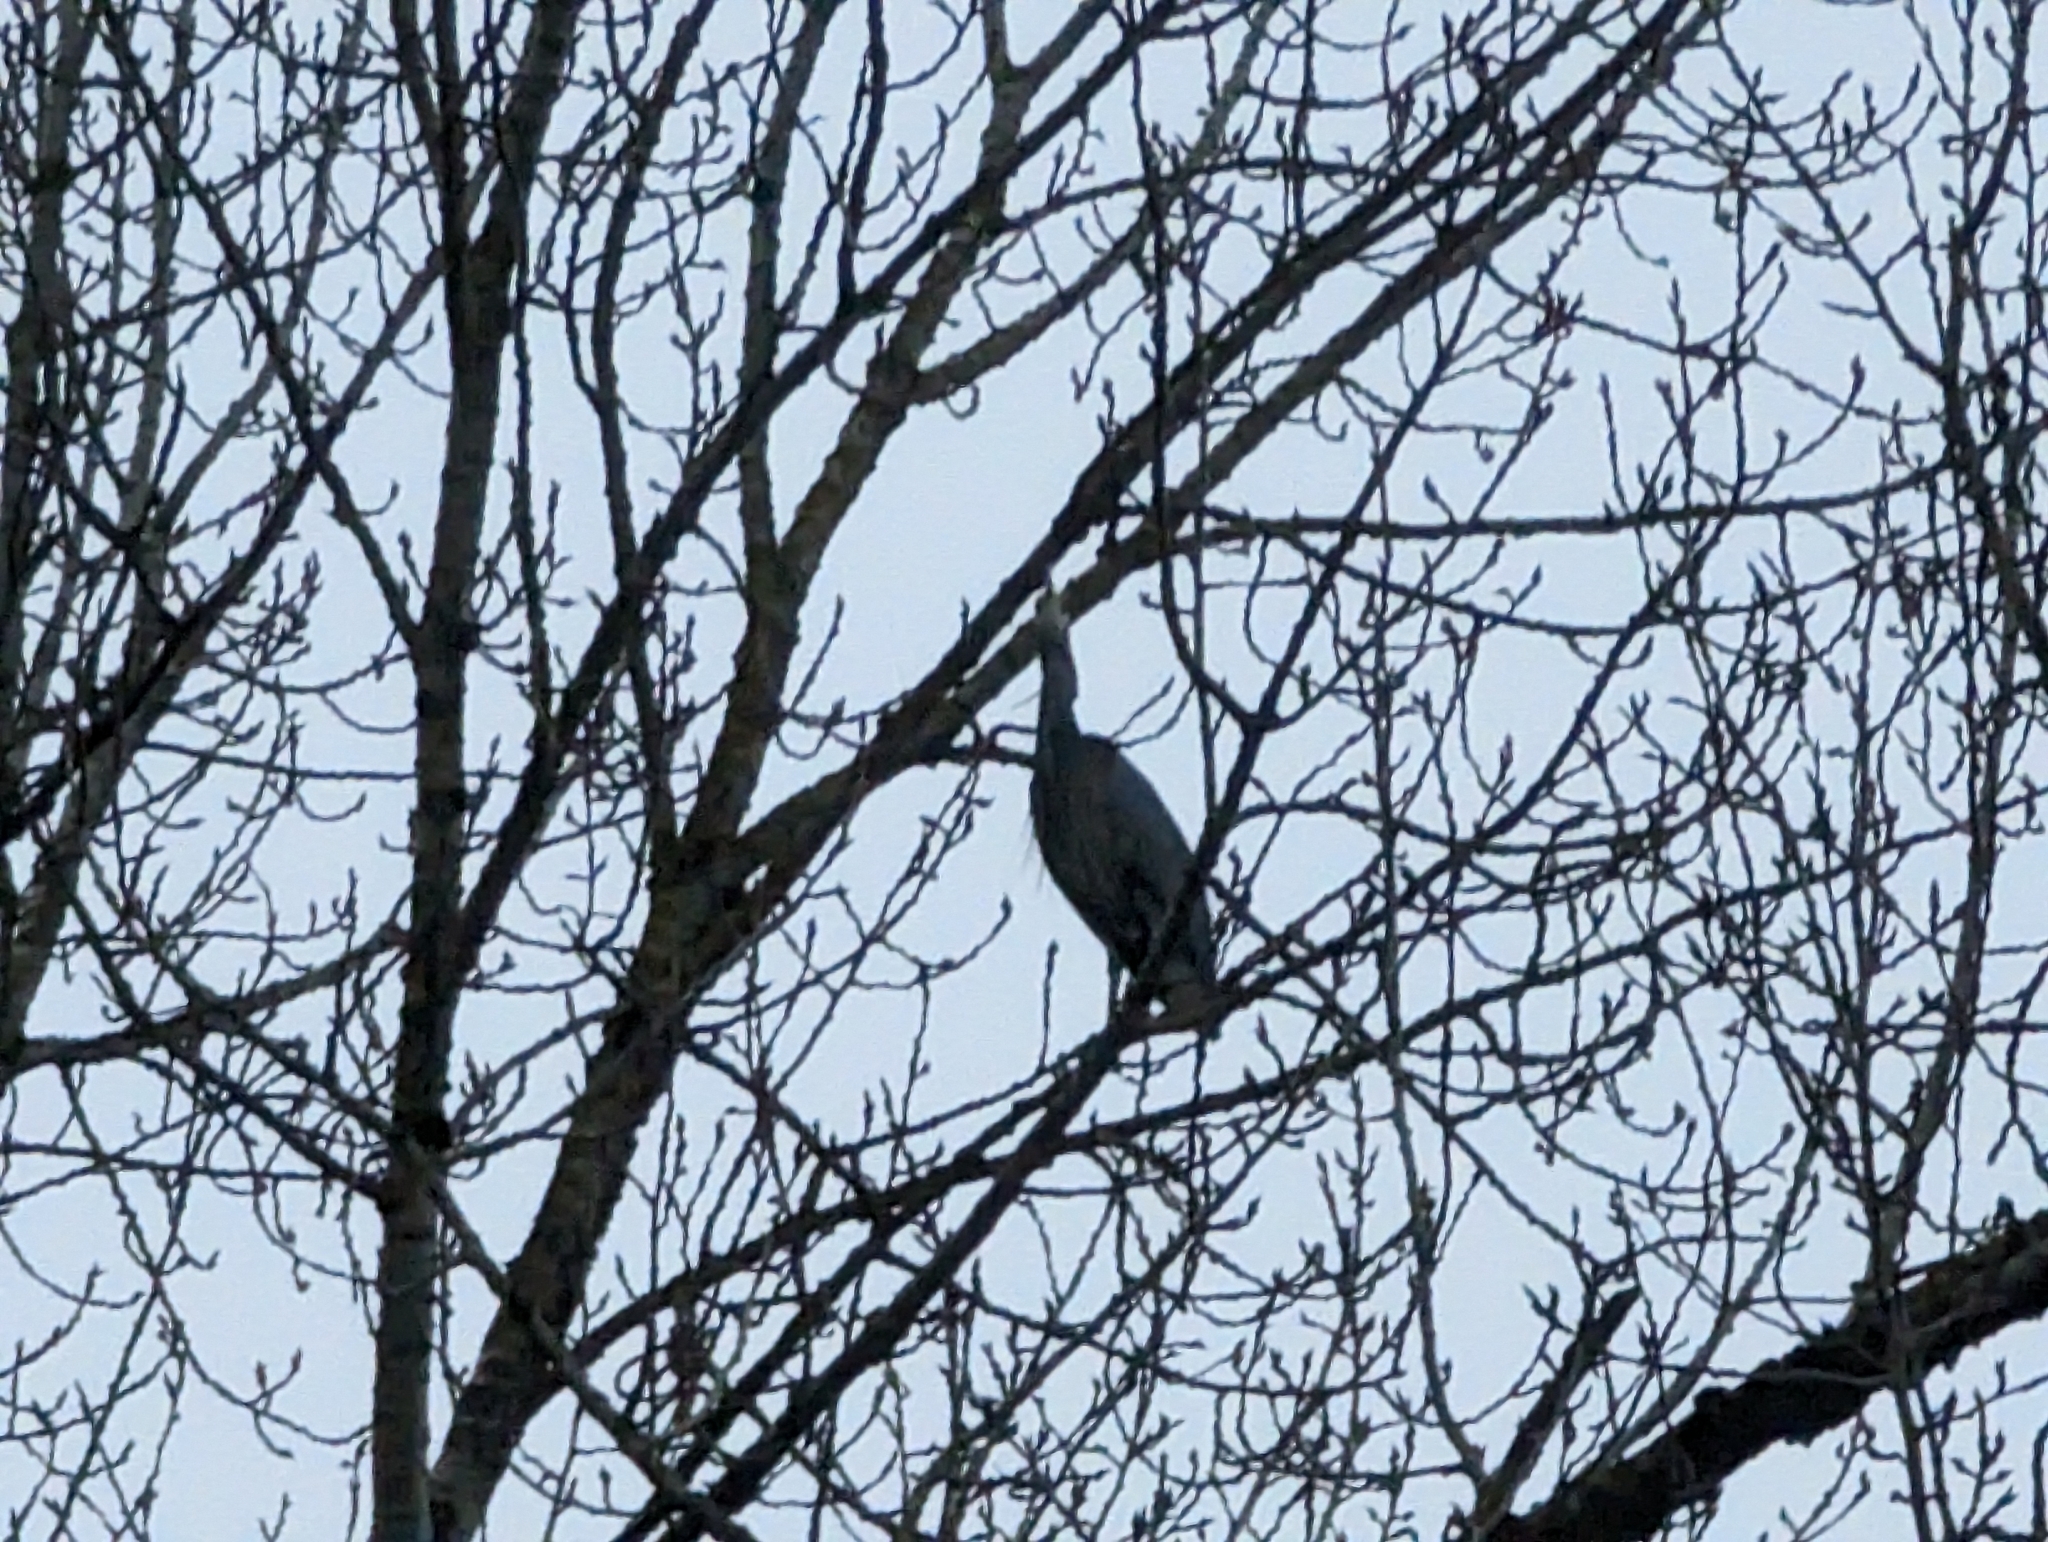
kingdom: Animalia
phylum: Chordata
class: Aves
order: Pelecaniformes
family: Ardeidae
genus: Ardea
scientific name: Ardea herodias
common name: Great blue heron
